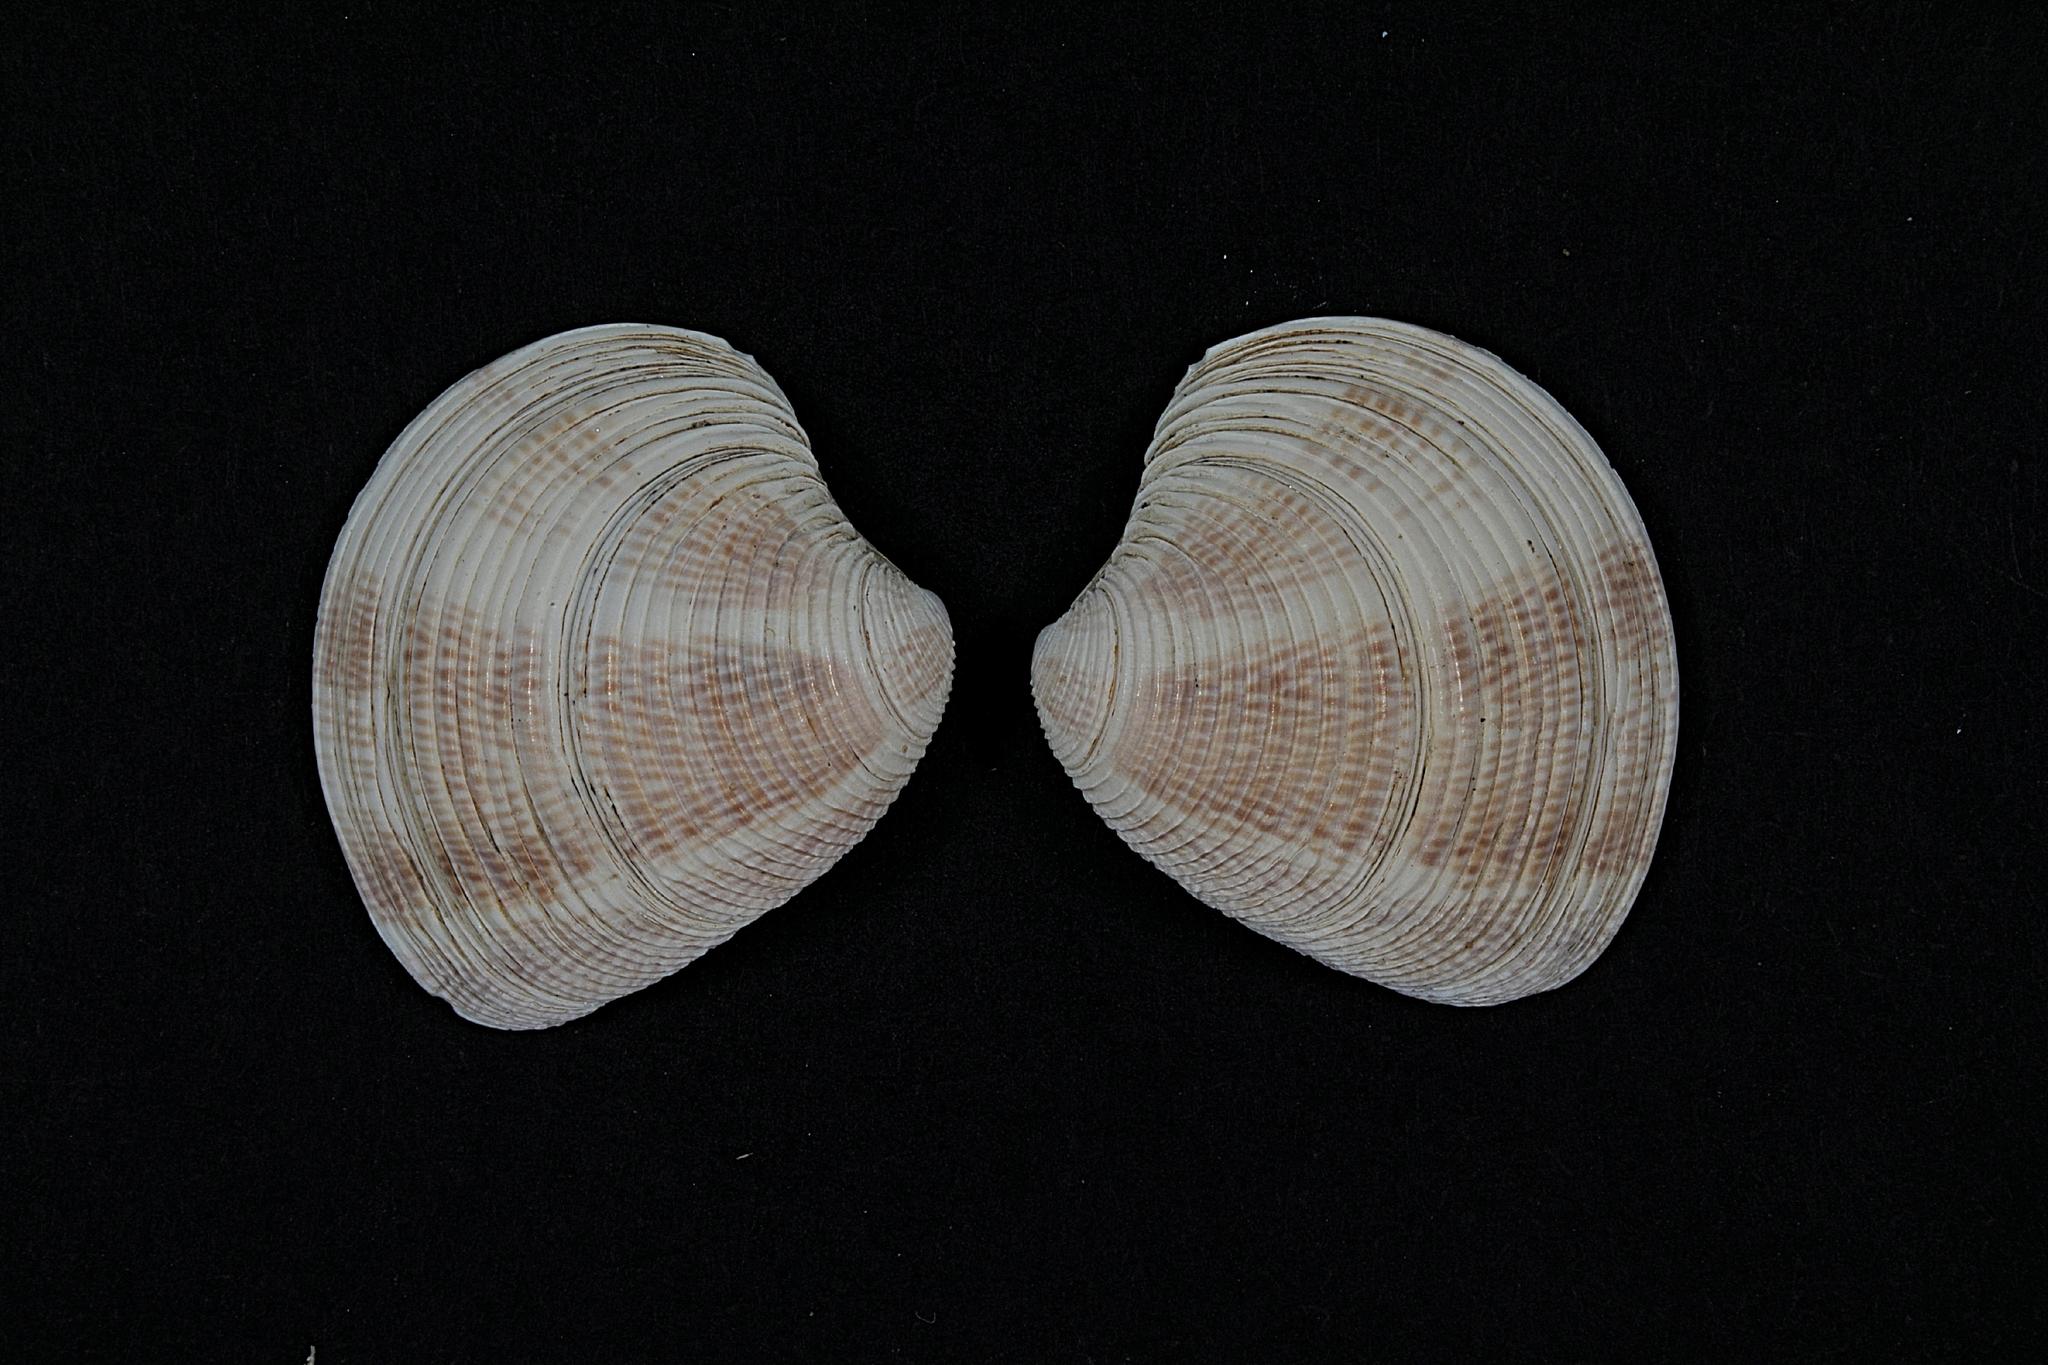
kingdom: Animalia
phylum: Mollusca
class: Bivalvia
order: Venerida
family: Veneridae
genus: Chamelea
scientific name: Chamelea striatula
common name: Striped venus
